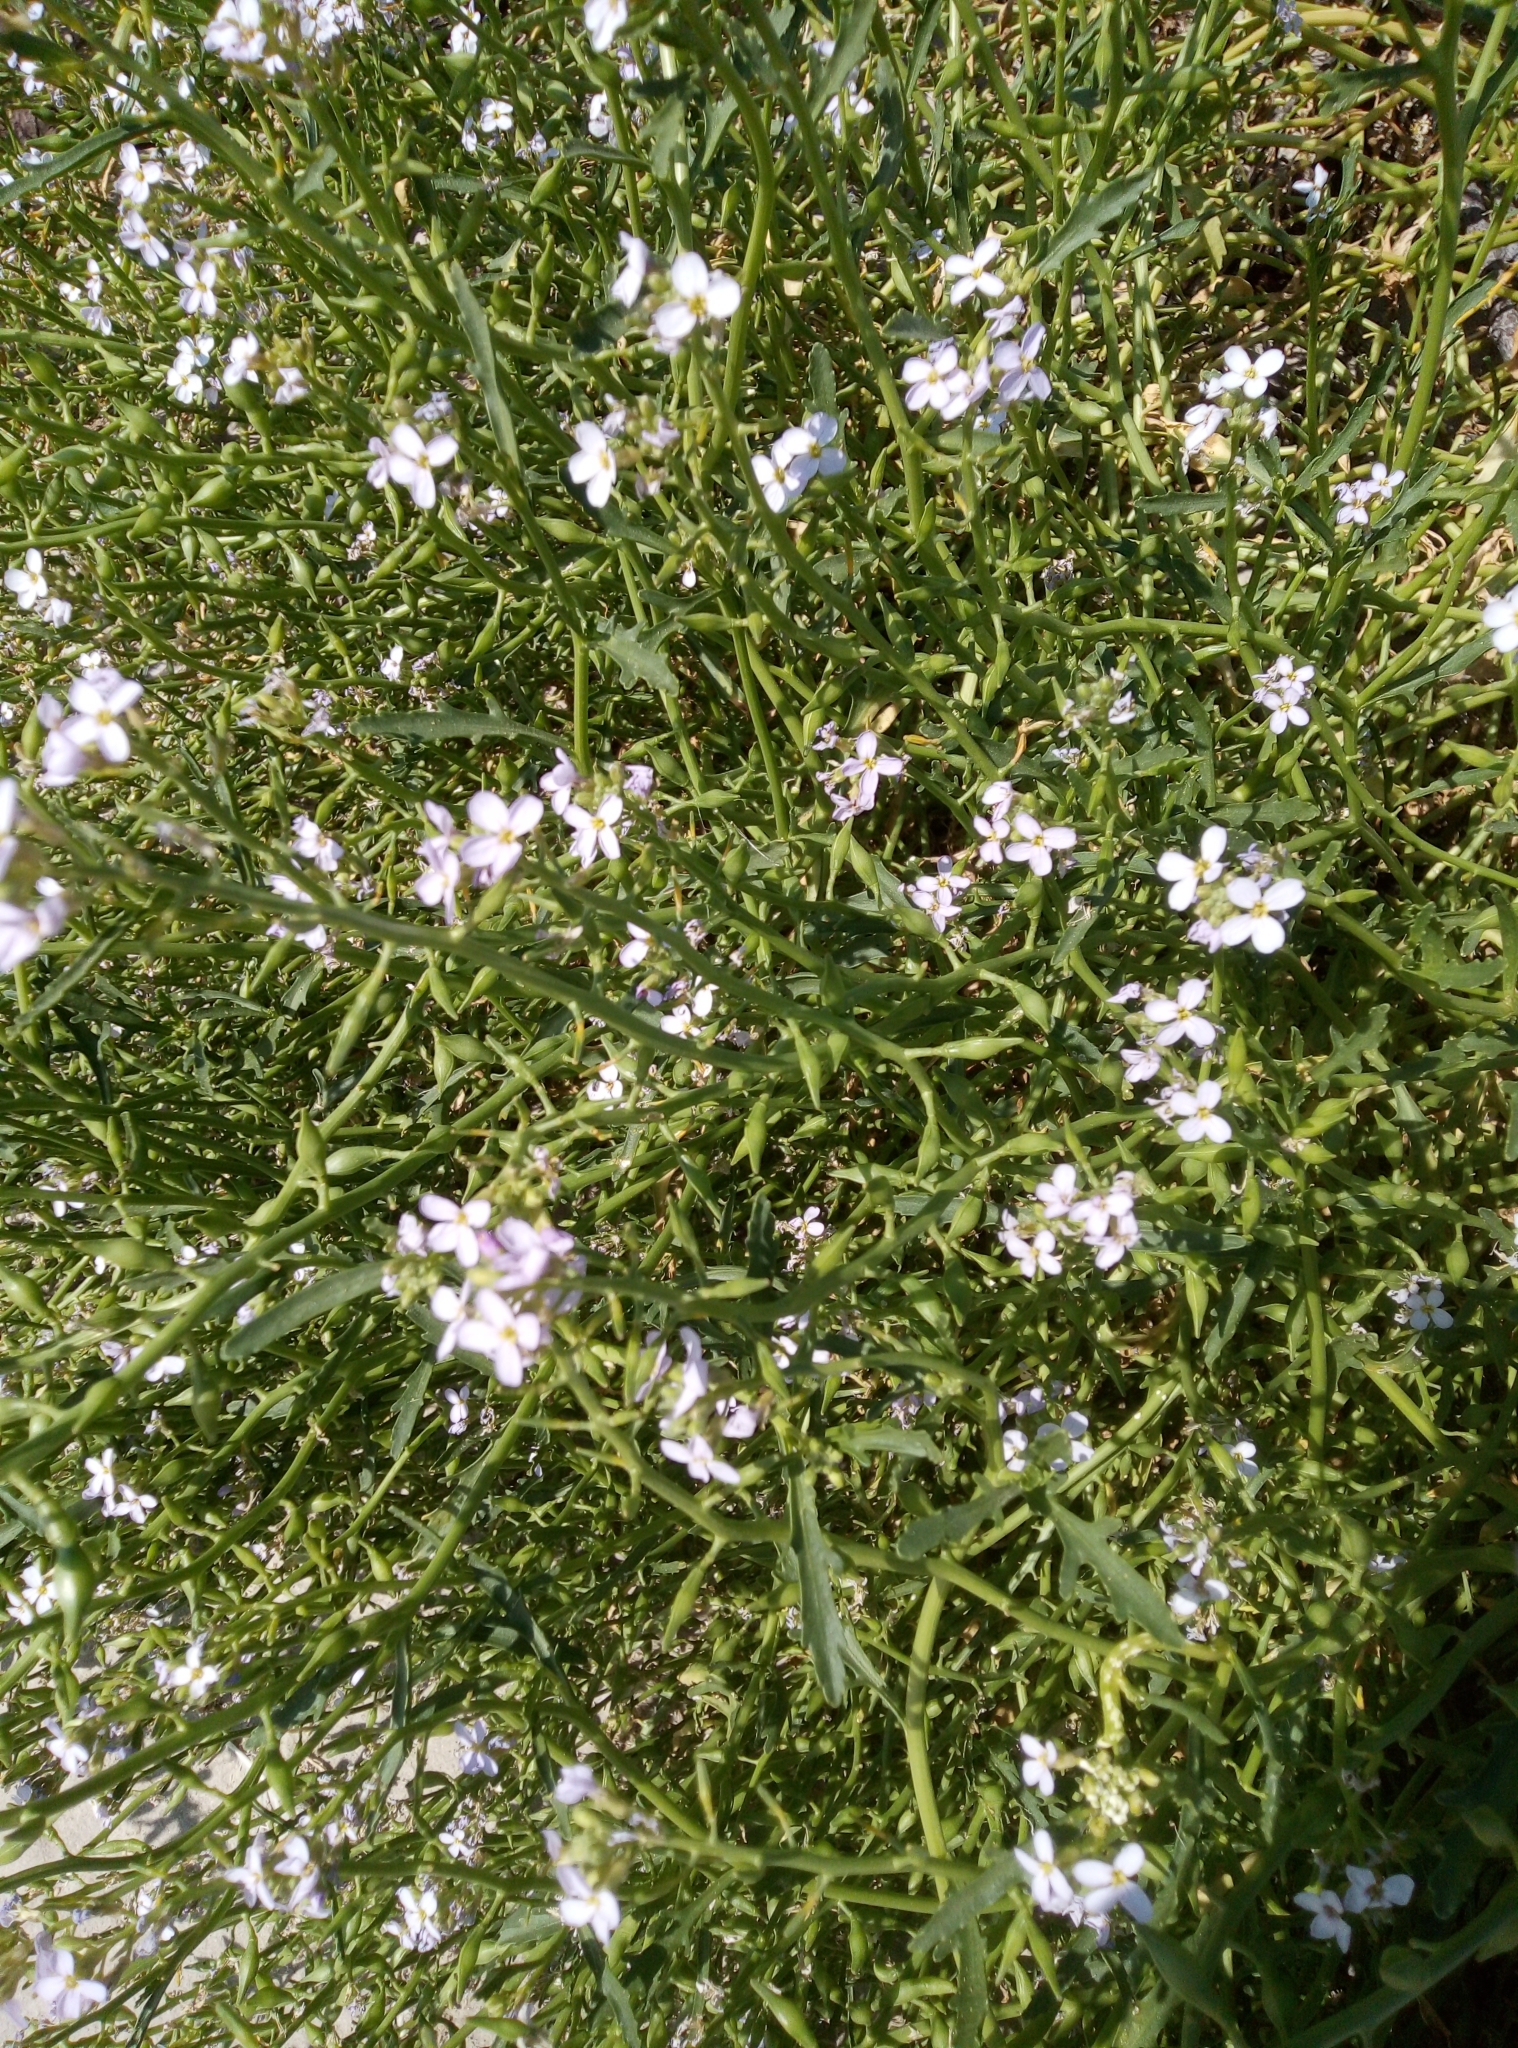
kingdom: Plantae
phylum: Tracheophyta
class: Magnoliopsida
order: Brassicales
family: Brassicaceae
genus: Cakile
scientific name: Cakile maritima
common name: Sea rocket
